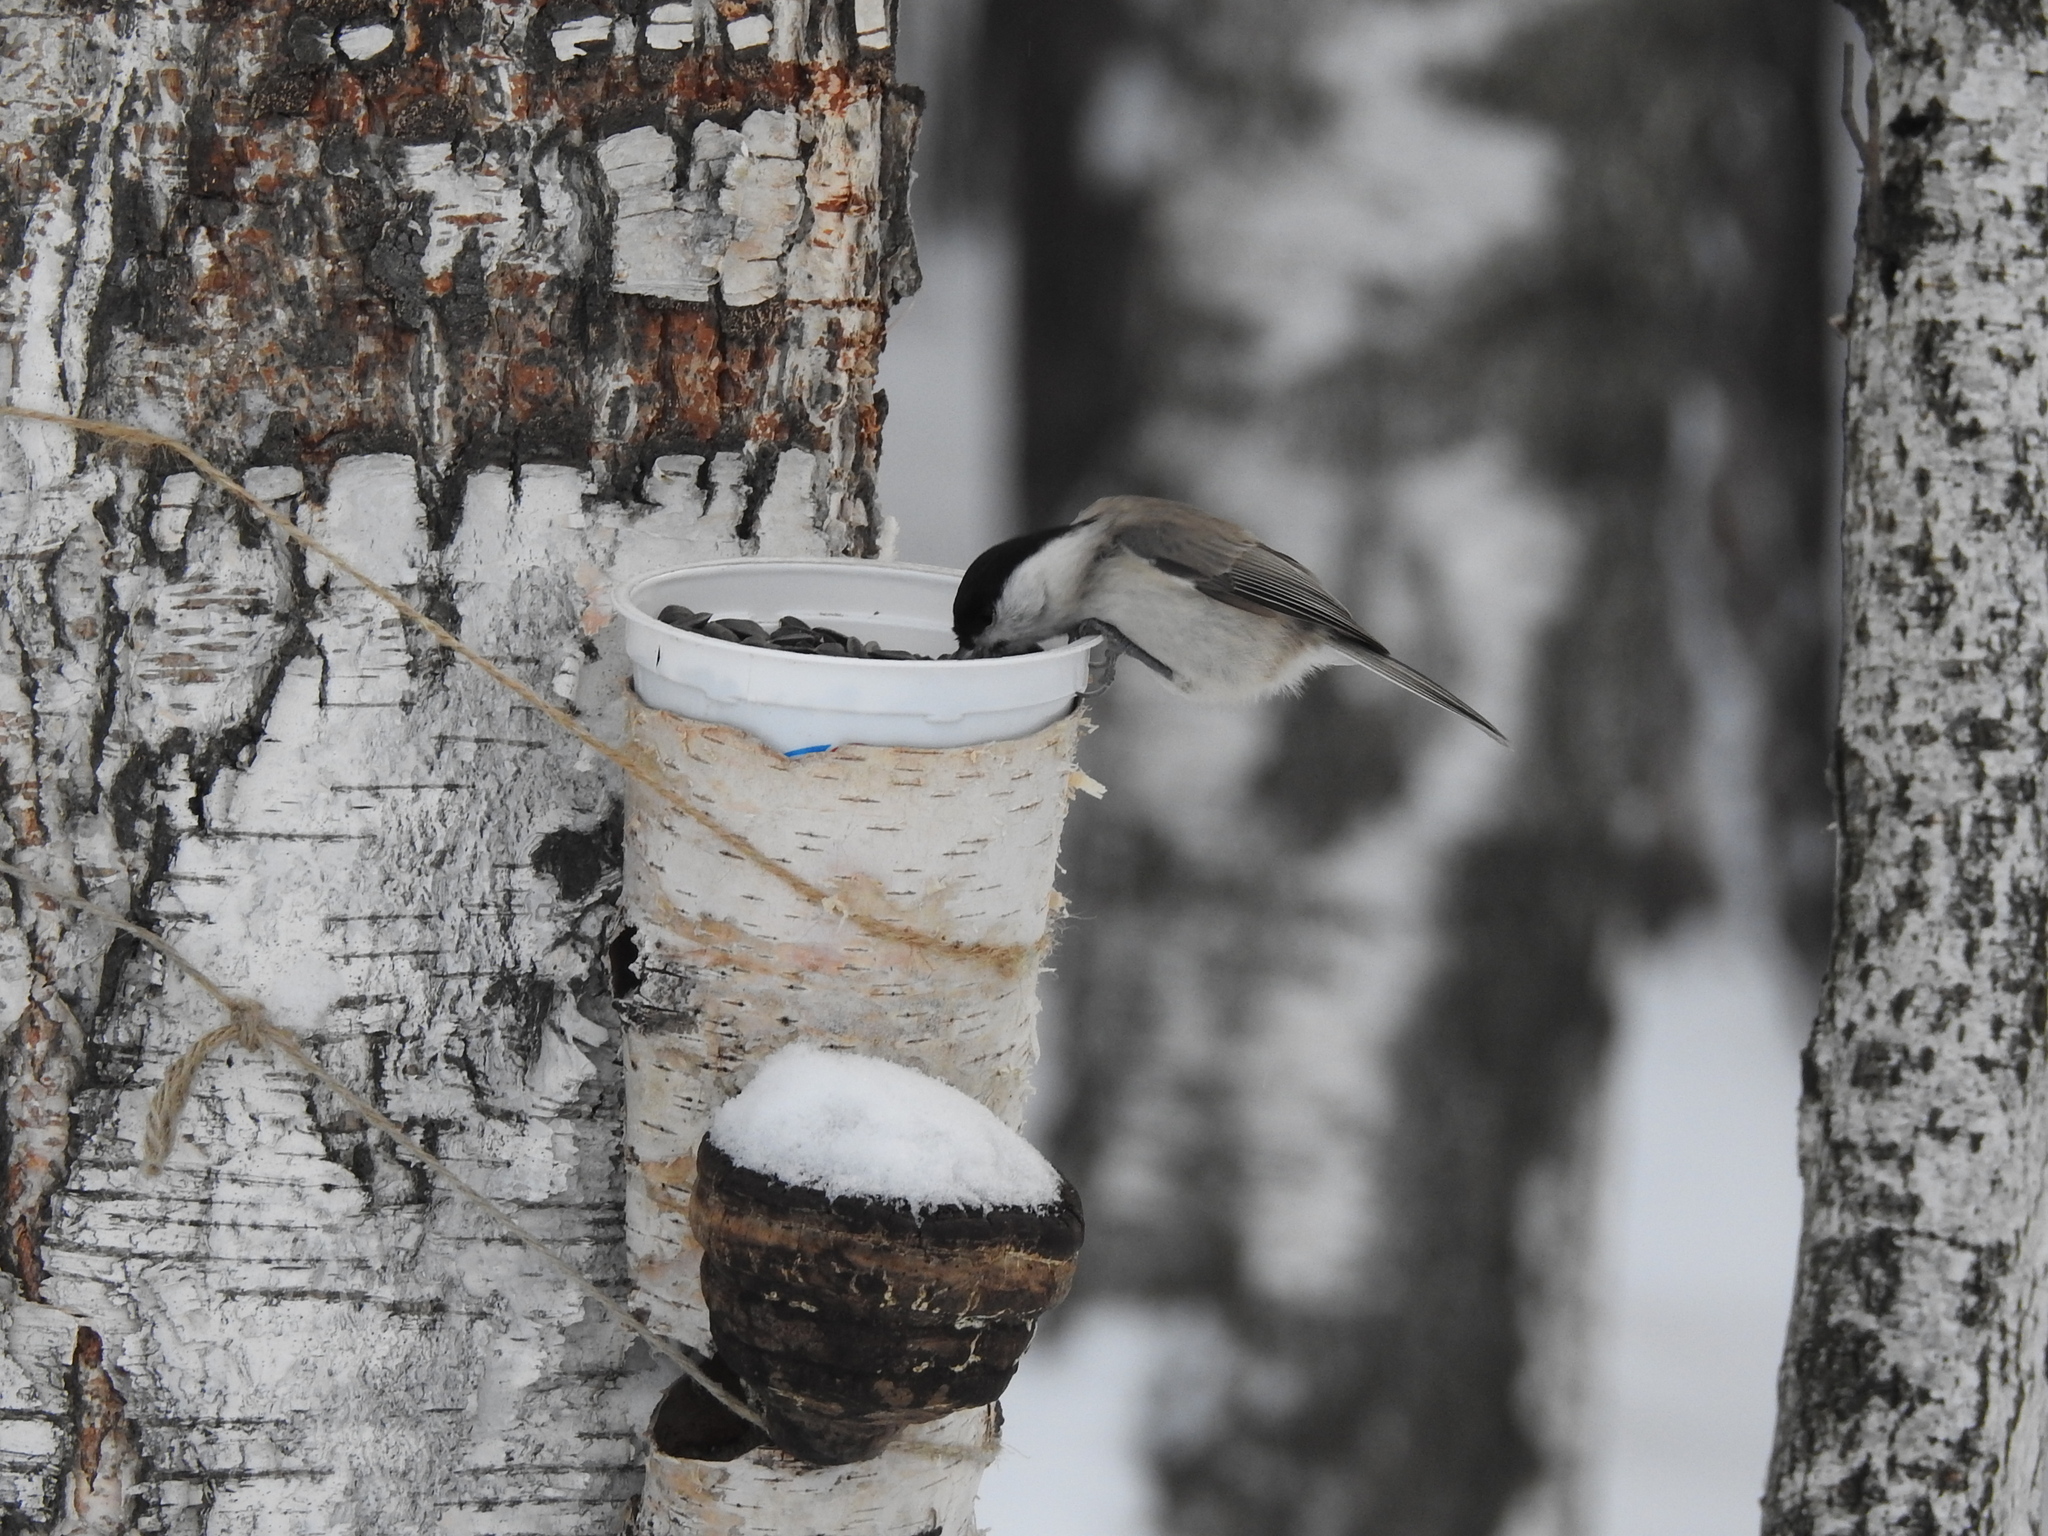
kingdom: Animalia
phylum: Chordata
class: Aves
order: Passeriformes
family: Paridae
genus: Poecile
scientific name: Poecile palustris
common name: Marsh tit
